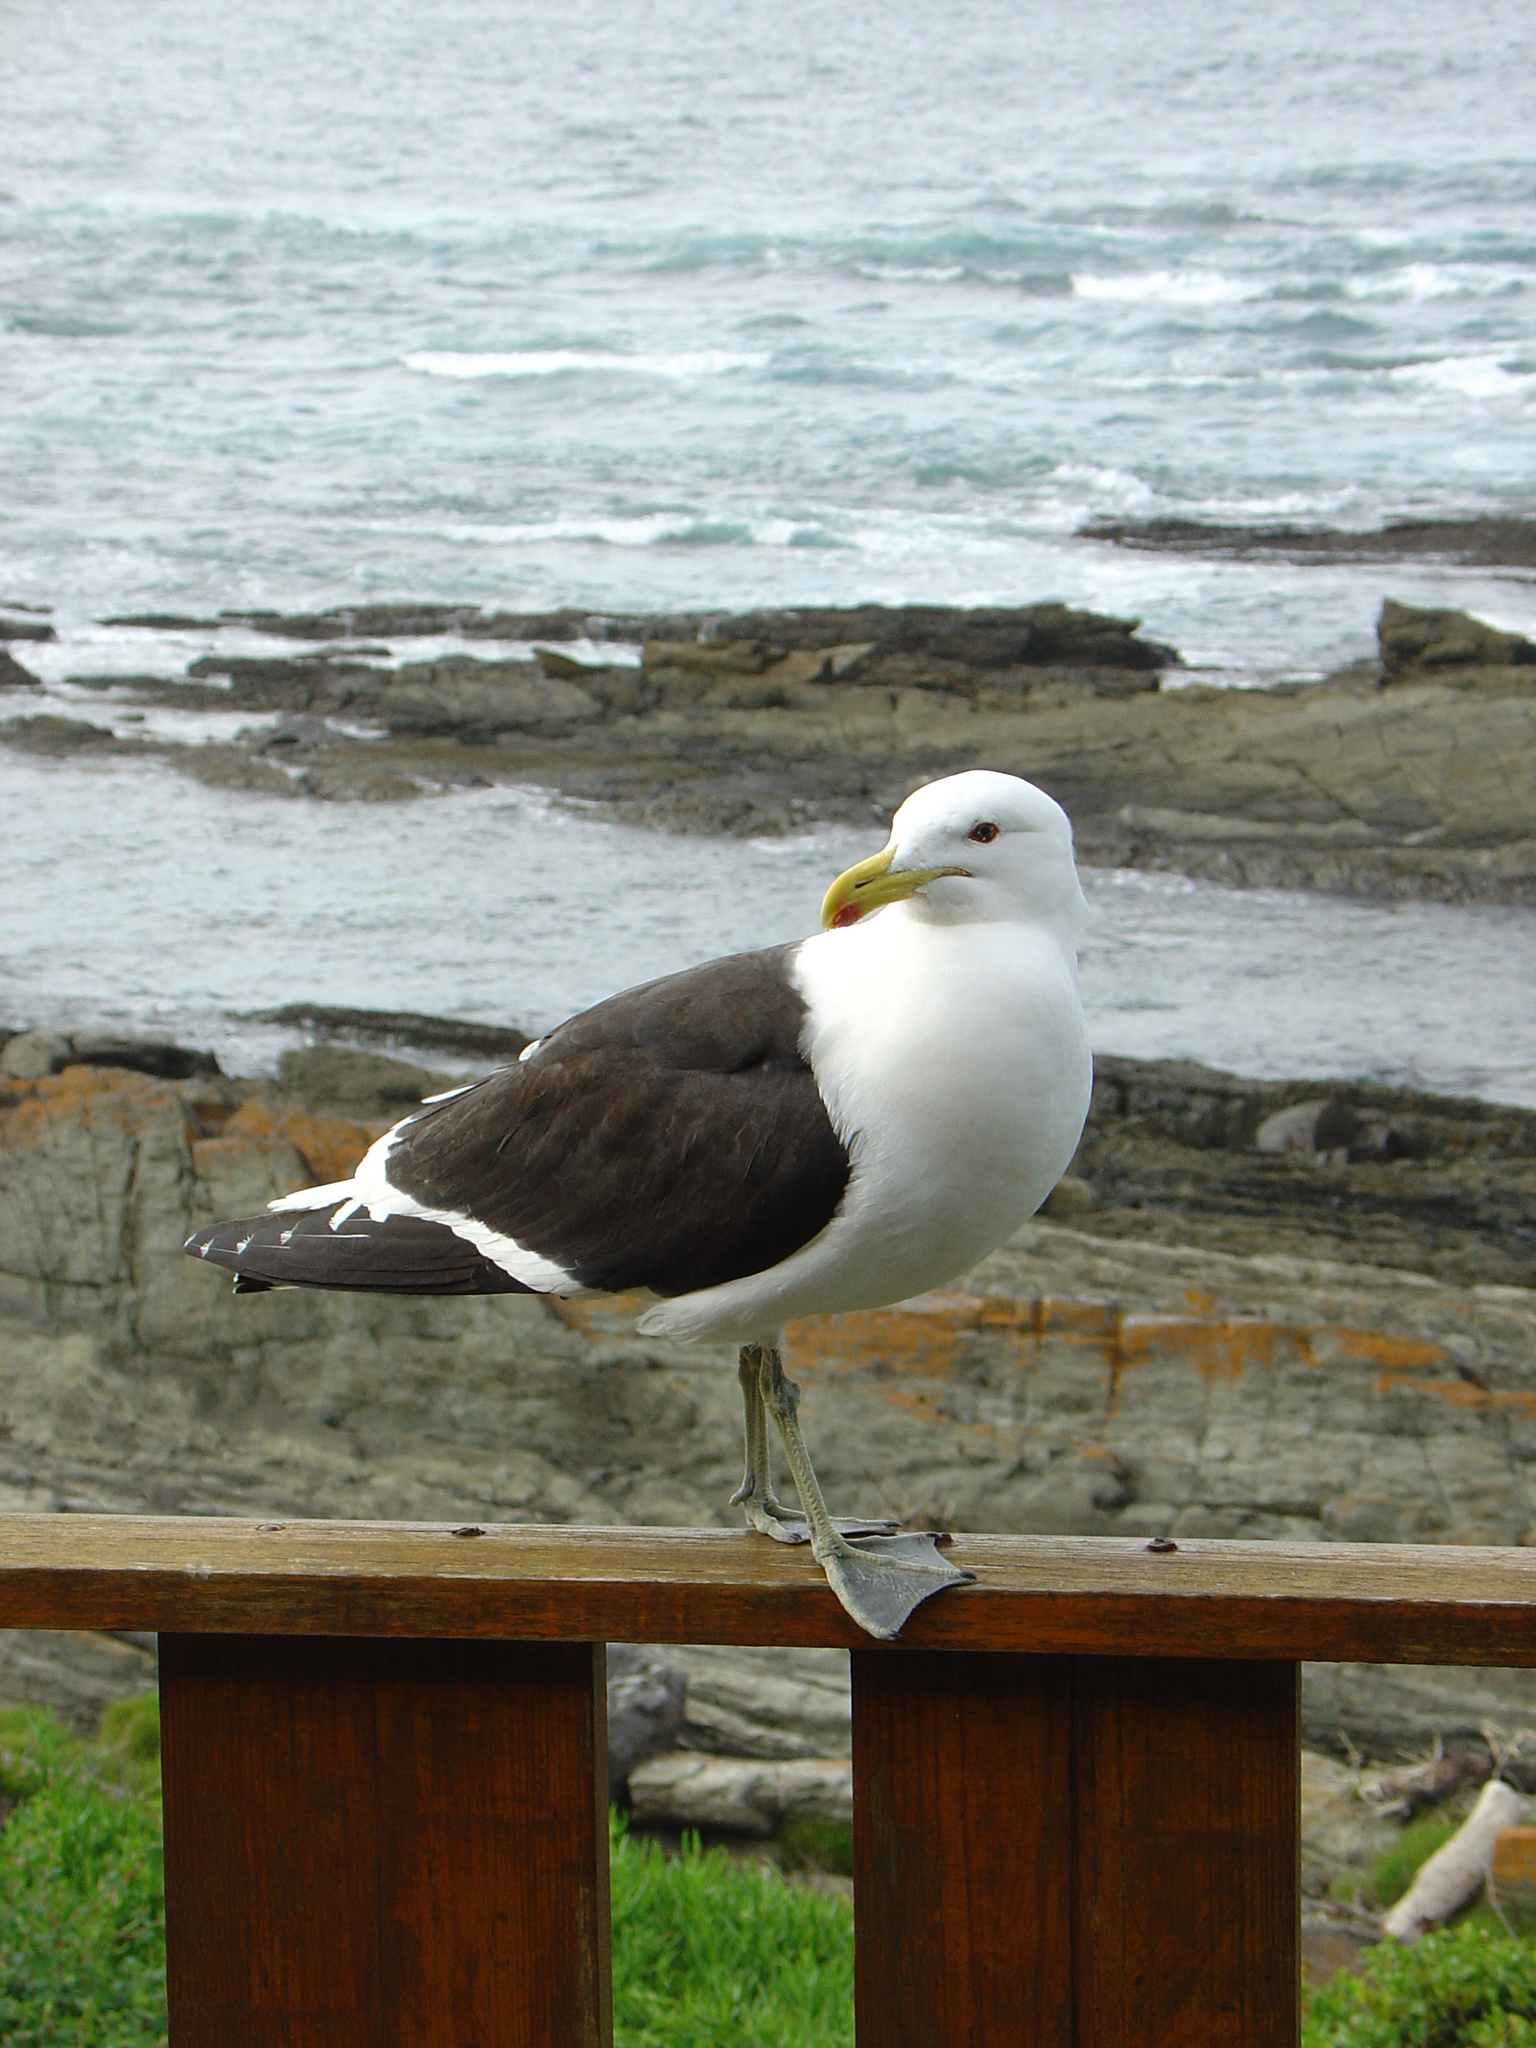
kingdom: Animalia
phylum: Chordata
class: Aves
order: Charadriiformes
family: Laridae
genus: Larus
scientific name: Larus dominicanus
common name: Kelp gull
